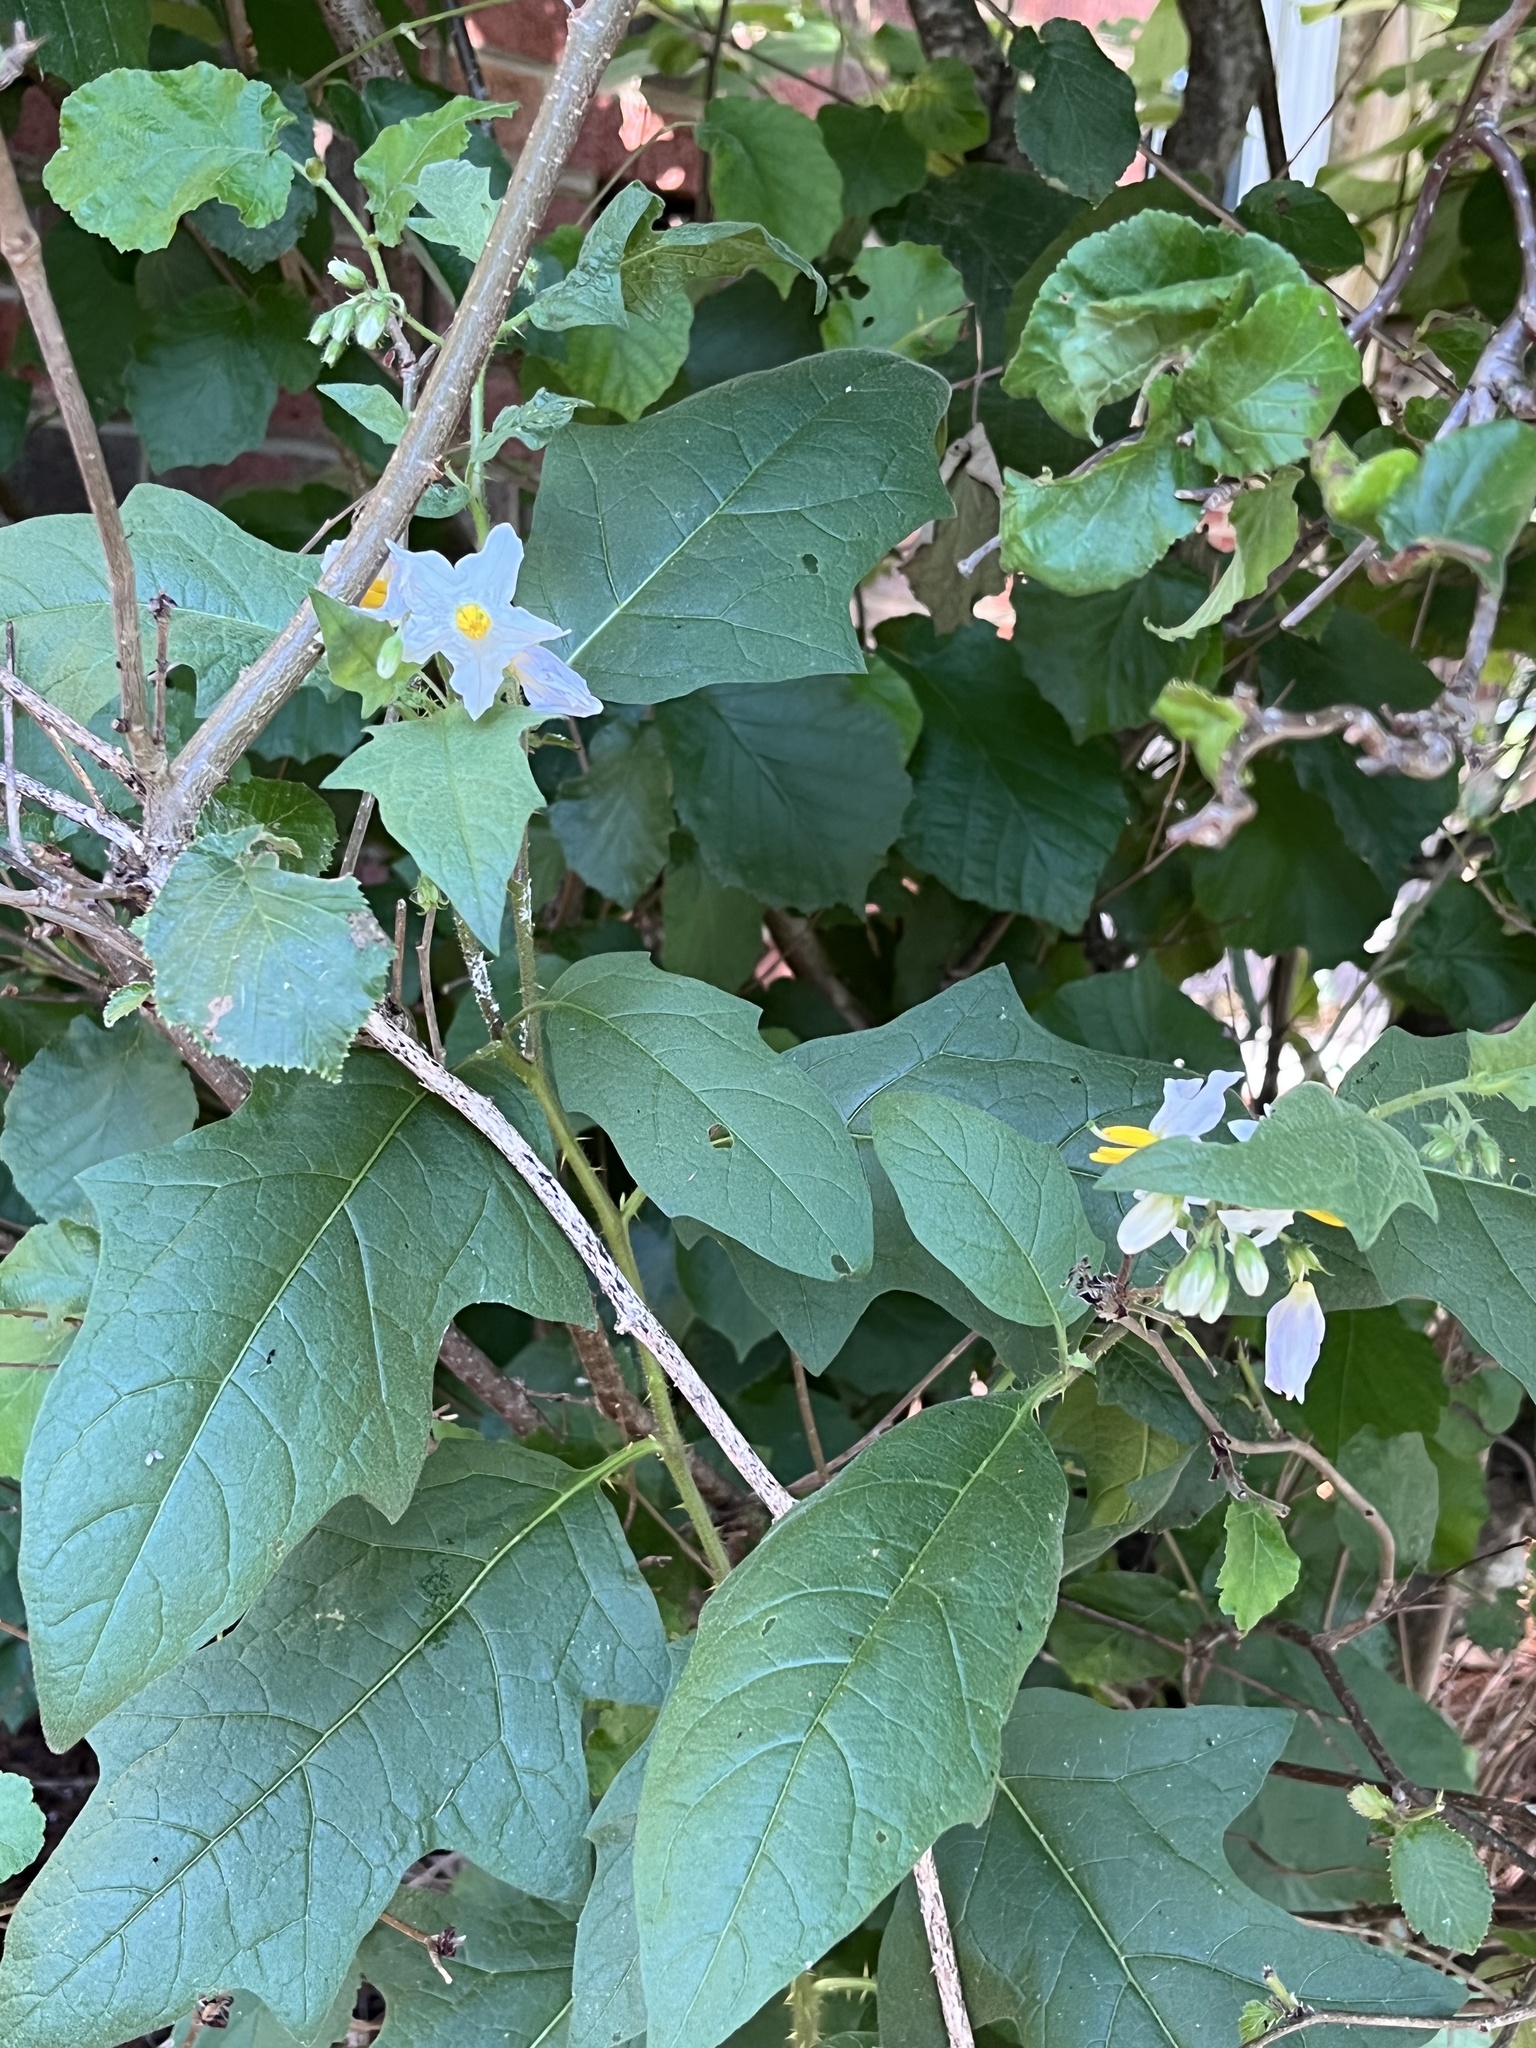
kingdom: Plantae
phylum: Tracheophyta
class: Magnoliopsida
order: Solanales
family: Solanaceae
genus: Solanum
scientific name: Solanum carolinense
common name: Horse-nettle
